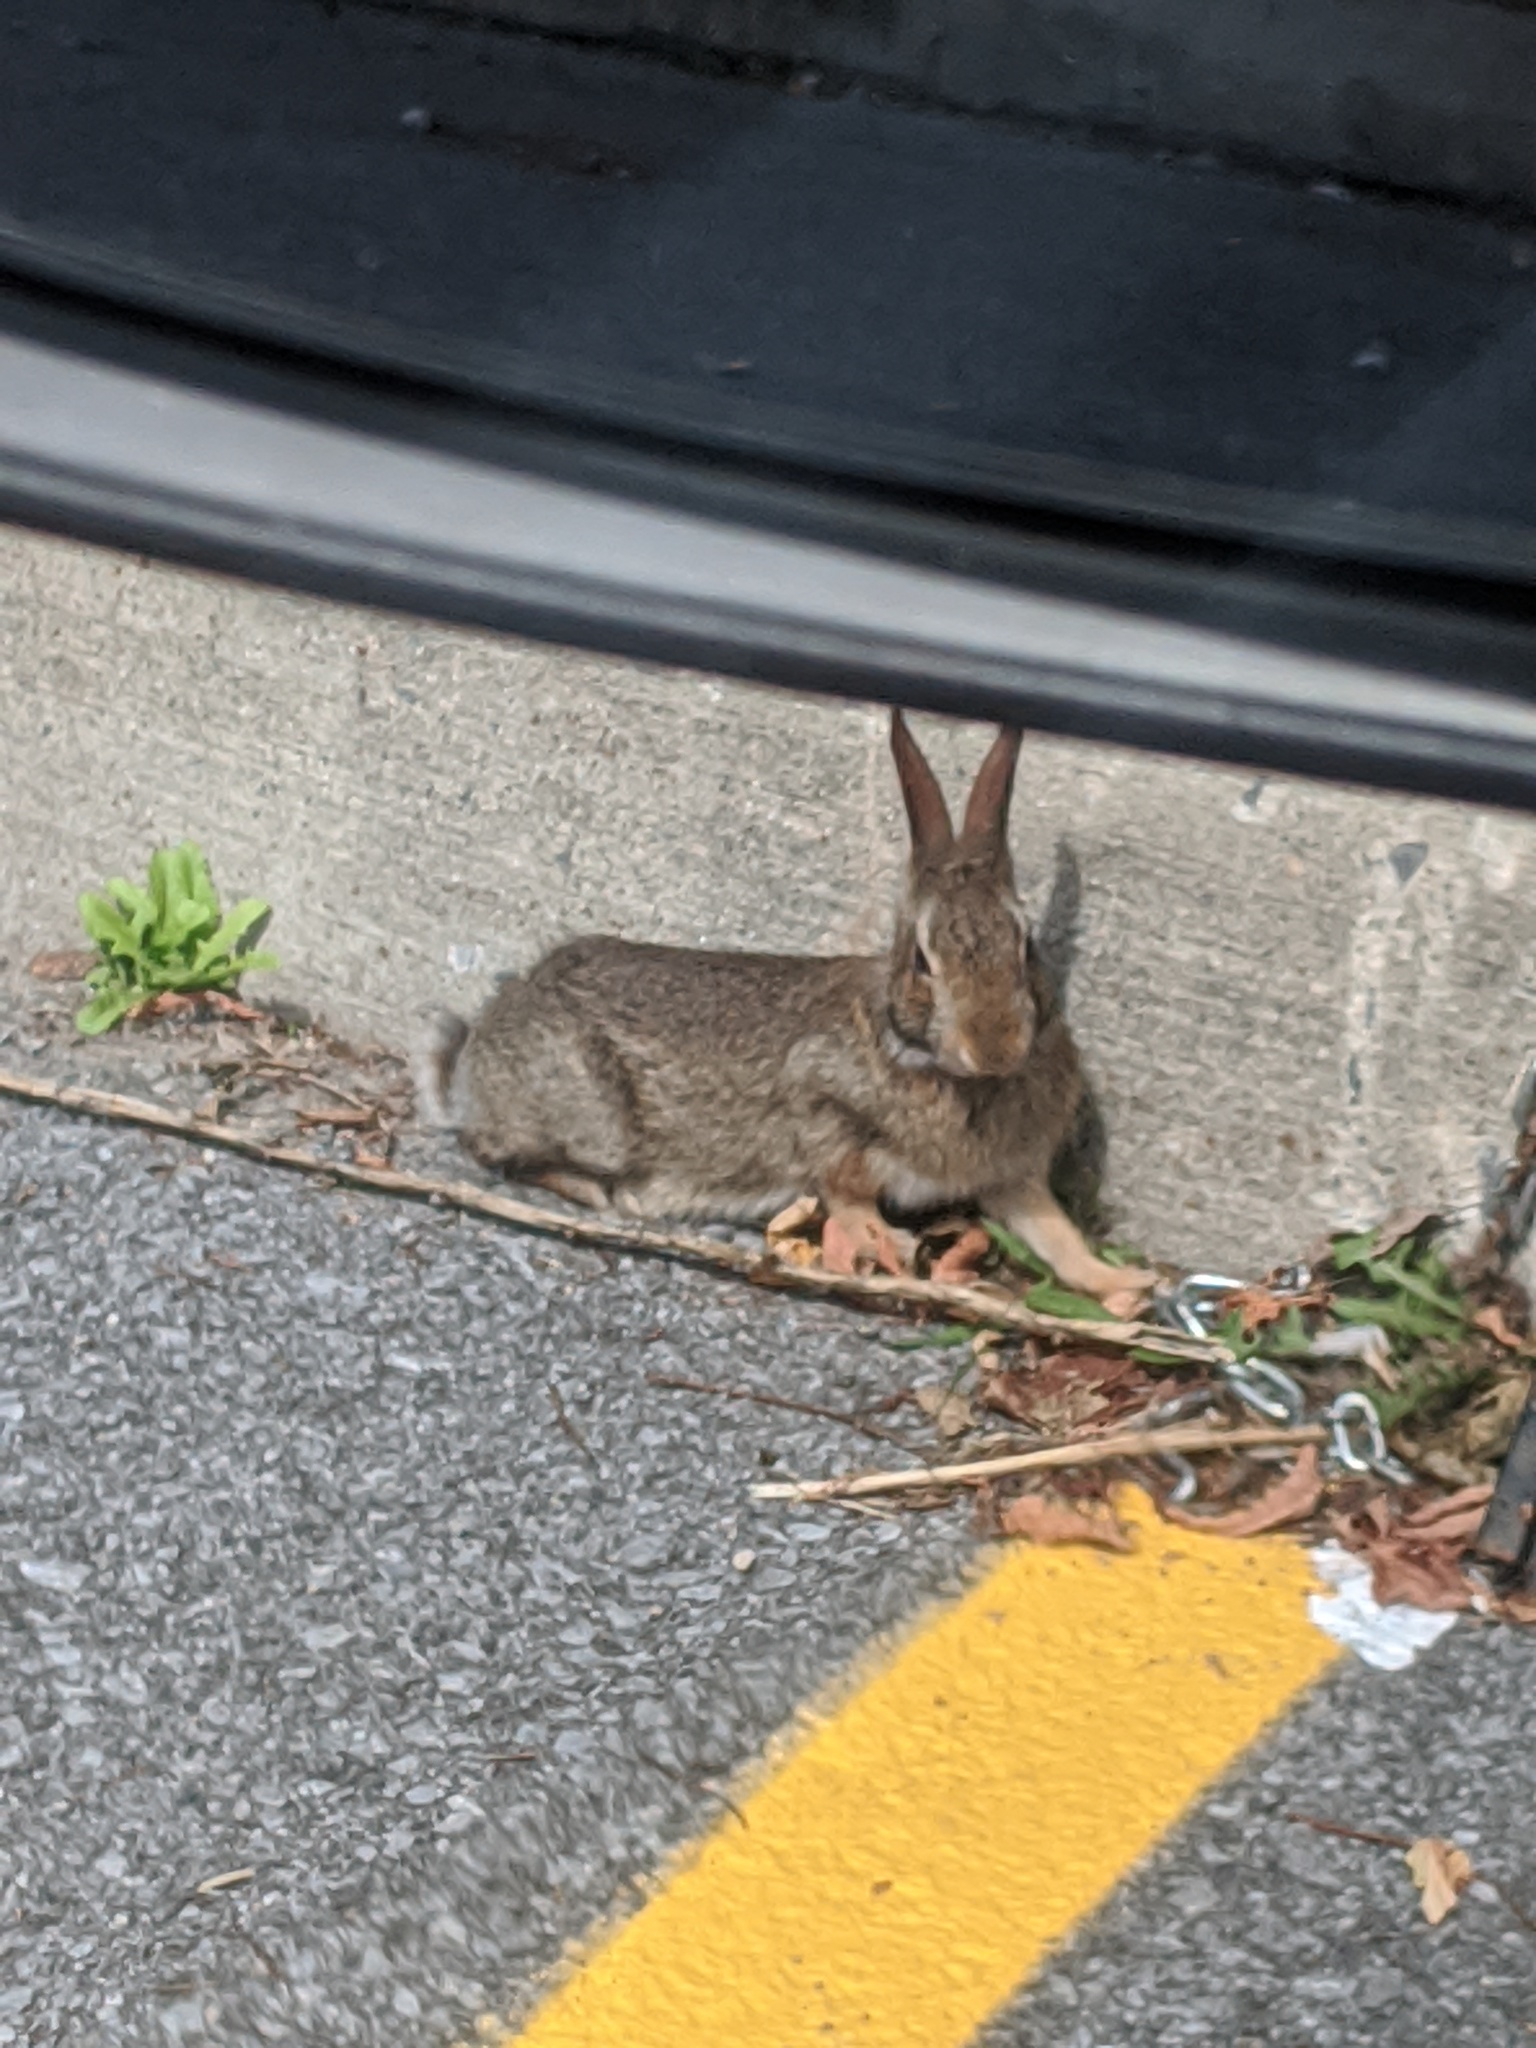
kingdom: Animalia
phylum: Chordata
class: Mammalia
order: Lagomorpha
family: Leporidae
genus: Sylvilagus
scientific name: Sylvilagus floridanus
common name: Eastern cottontail
